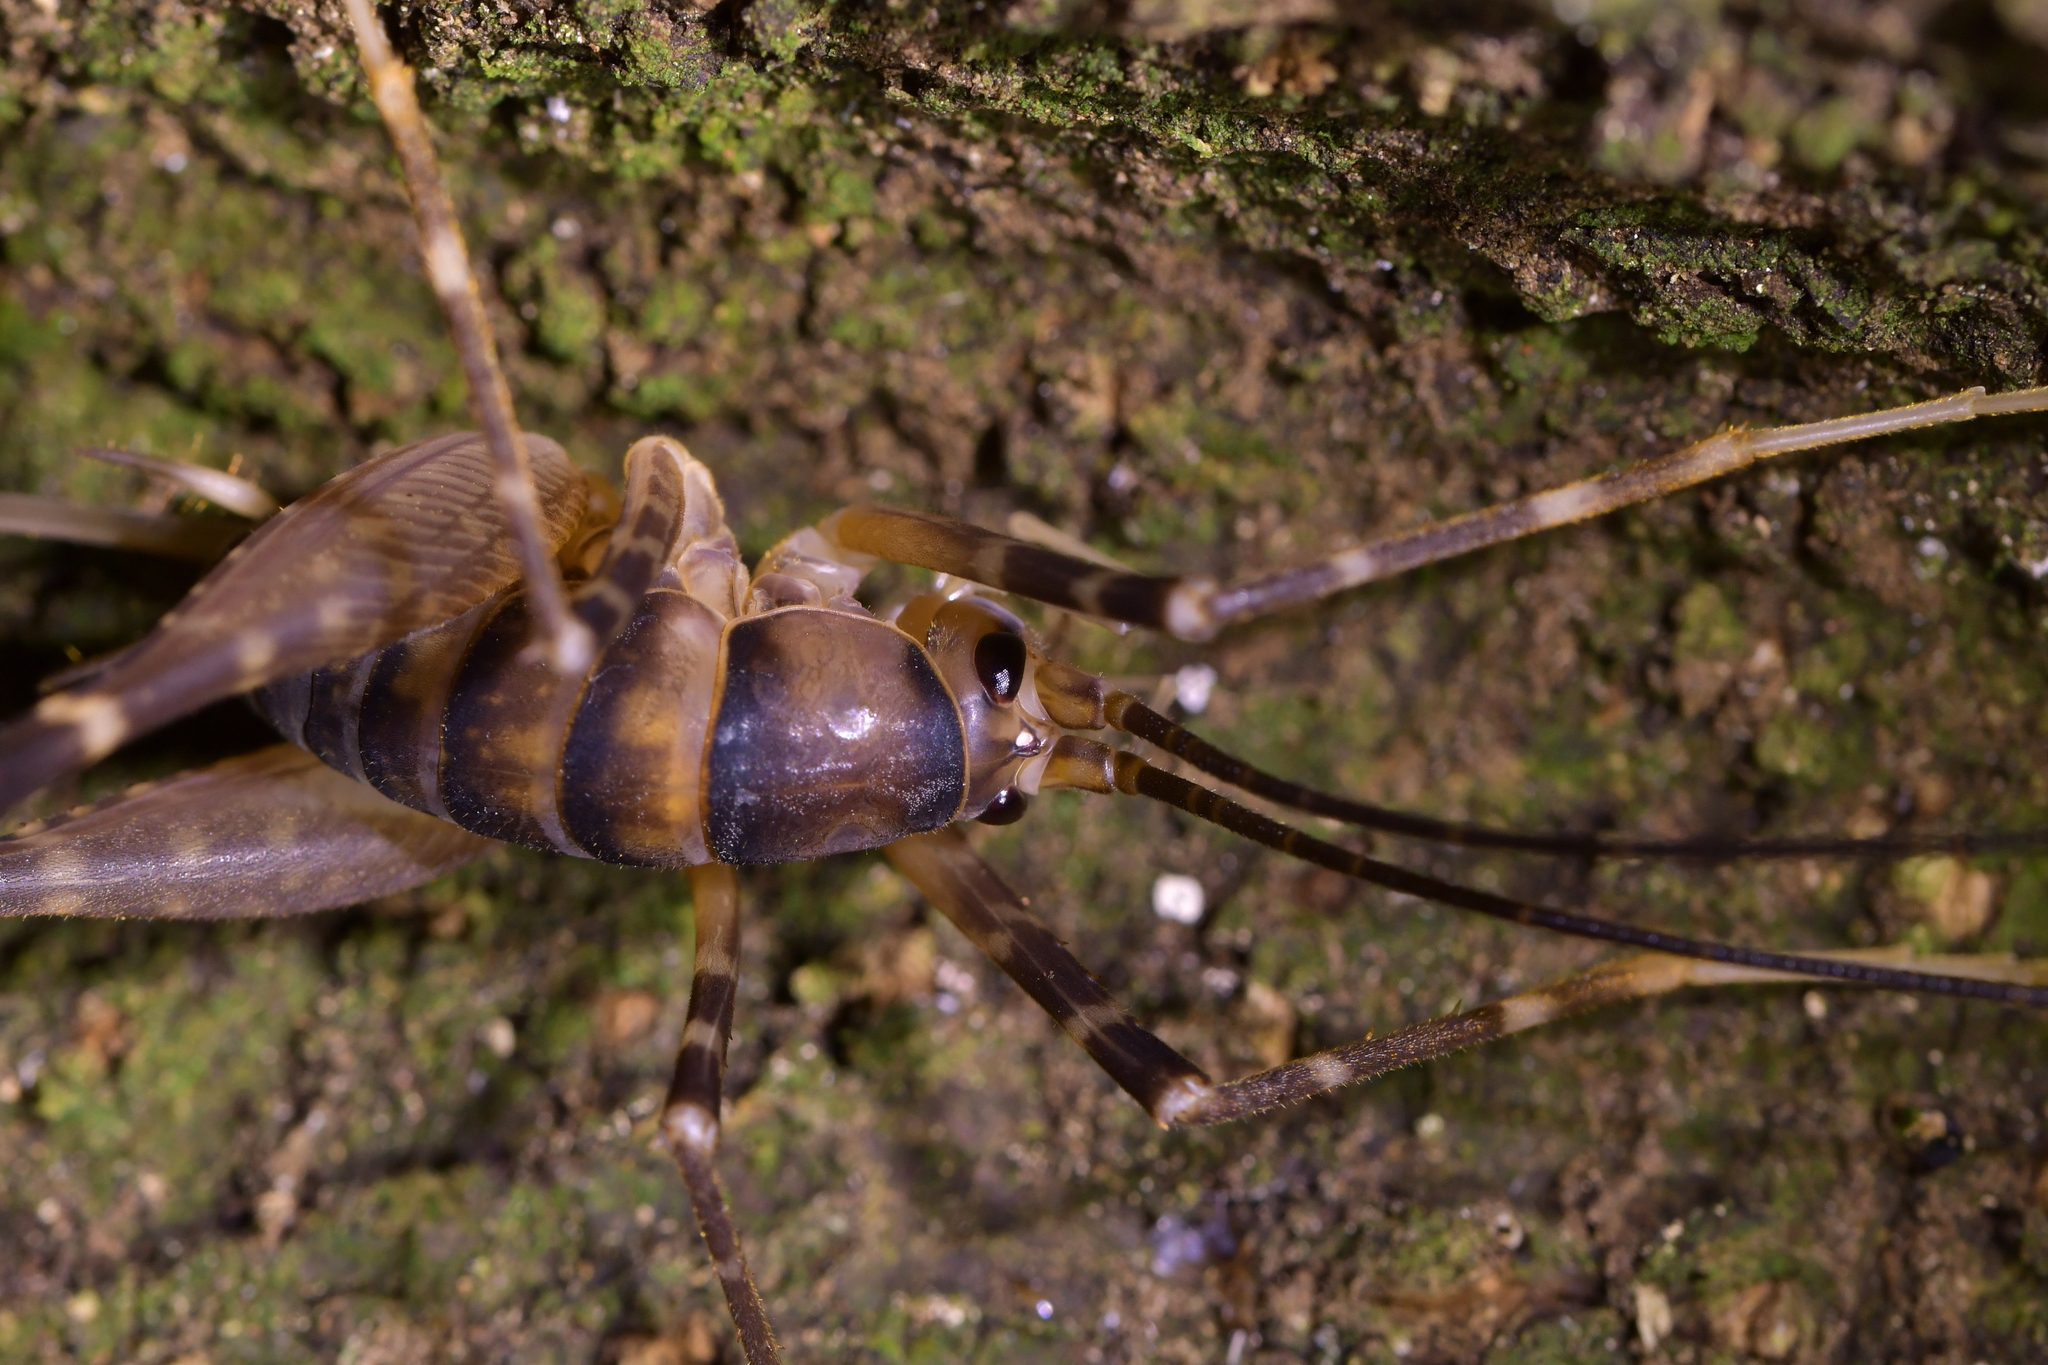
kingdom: Animalia
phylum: Arthropoda
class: Insecta
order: Orthoptera
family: Rhaphidophoridae
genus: Pachyrhamma
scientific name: Pachyrhamma edwardsii
